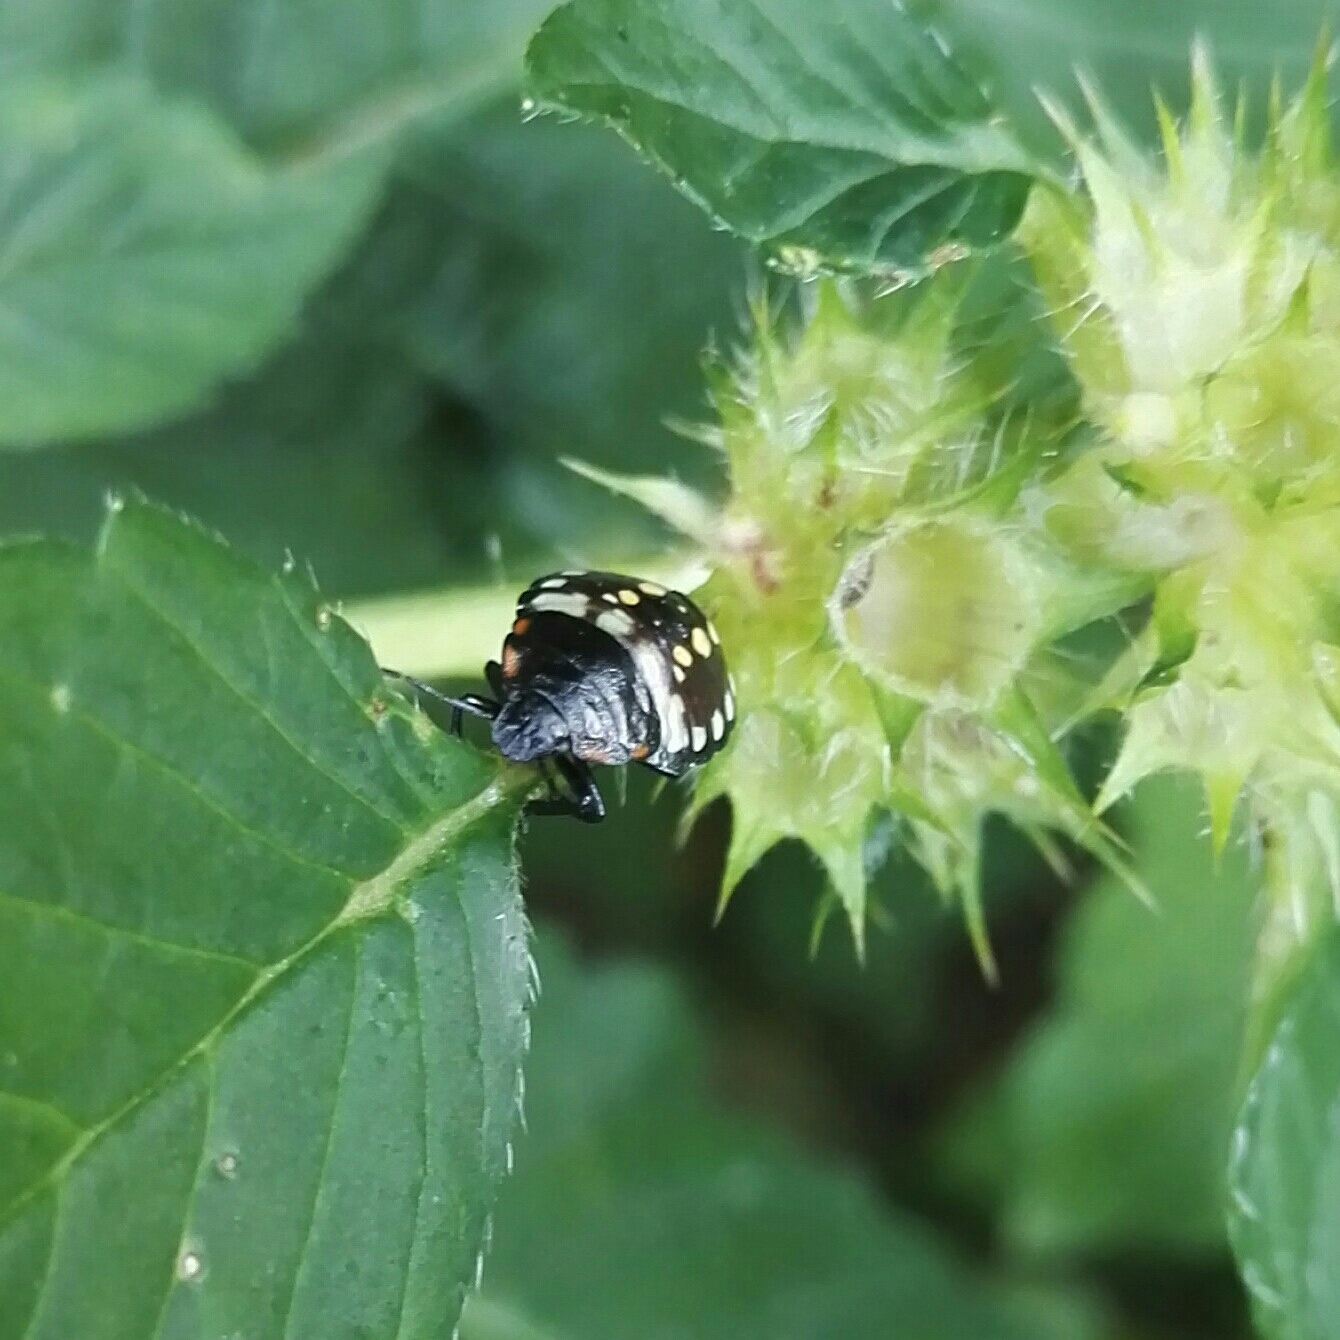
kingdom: Animalia
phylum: Arthropoda
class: Insecta
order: Hemiptera
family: Pentatomidae
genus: Nezara
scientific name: Nezara viridula
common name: Southern green stink bug
